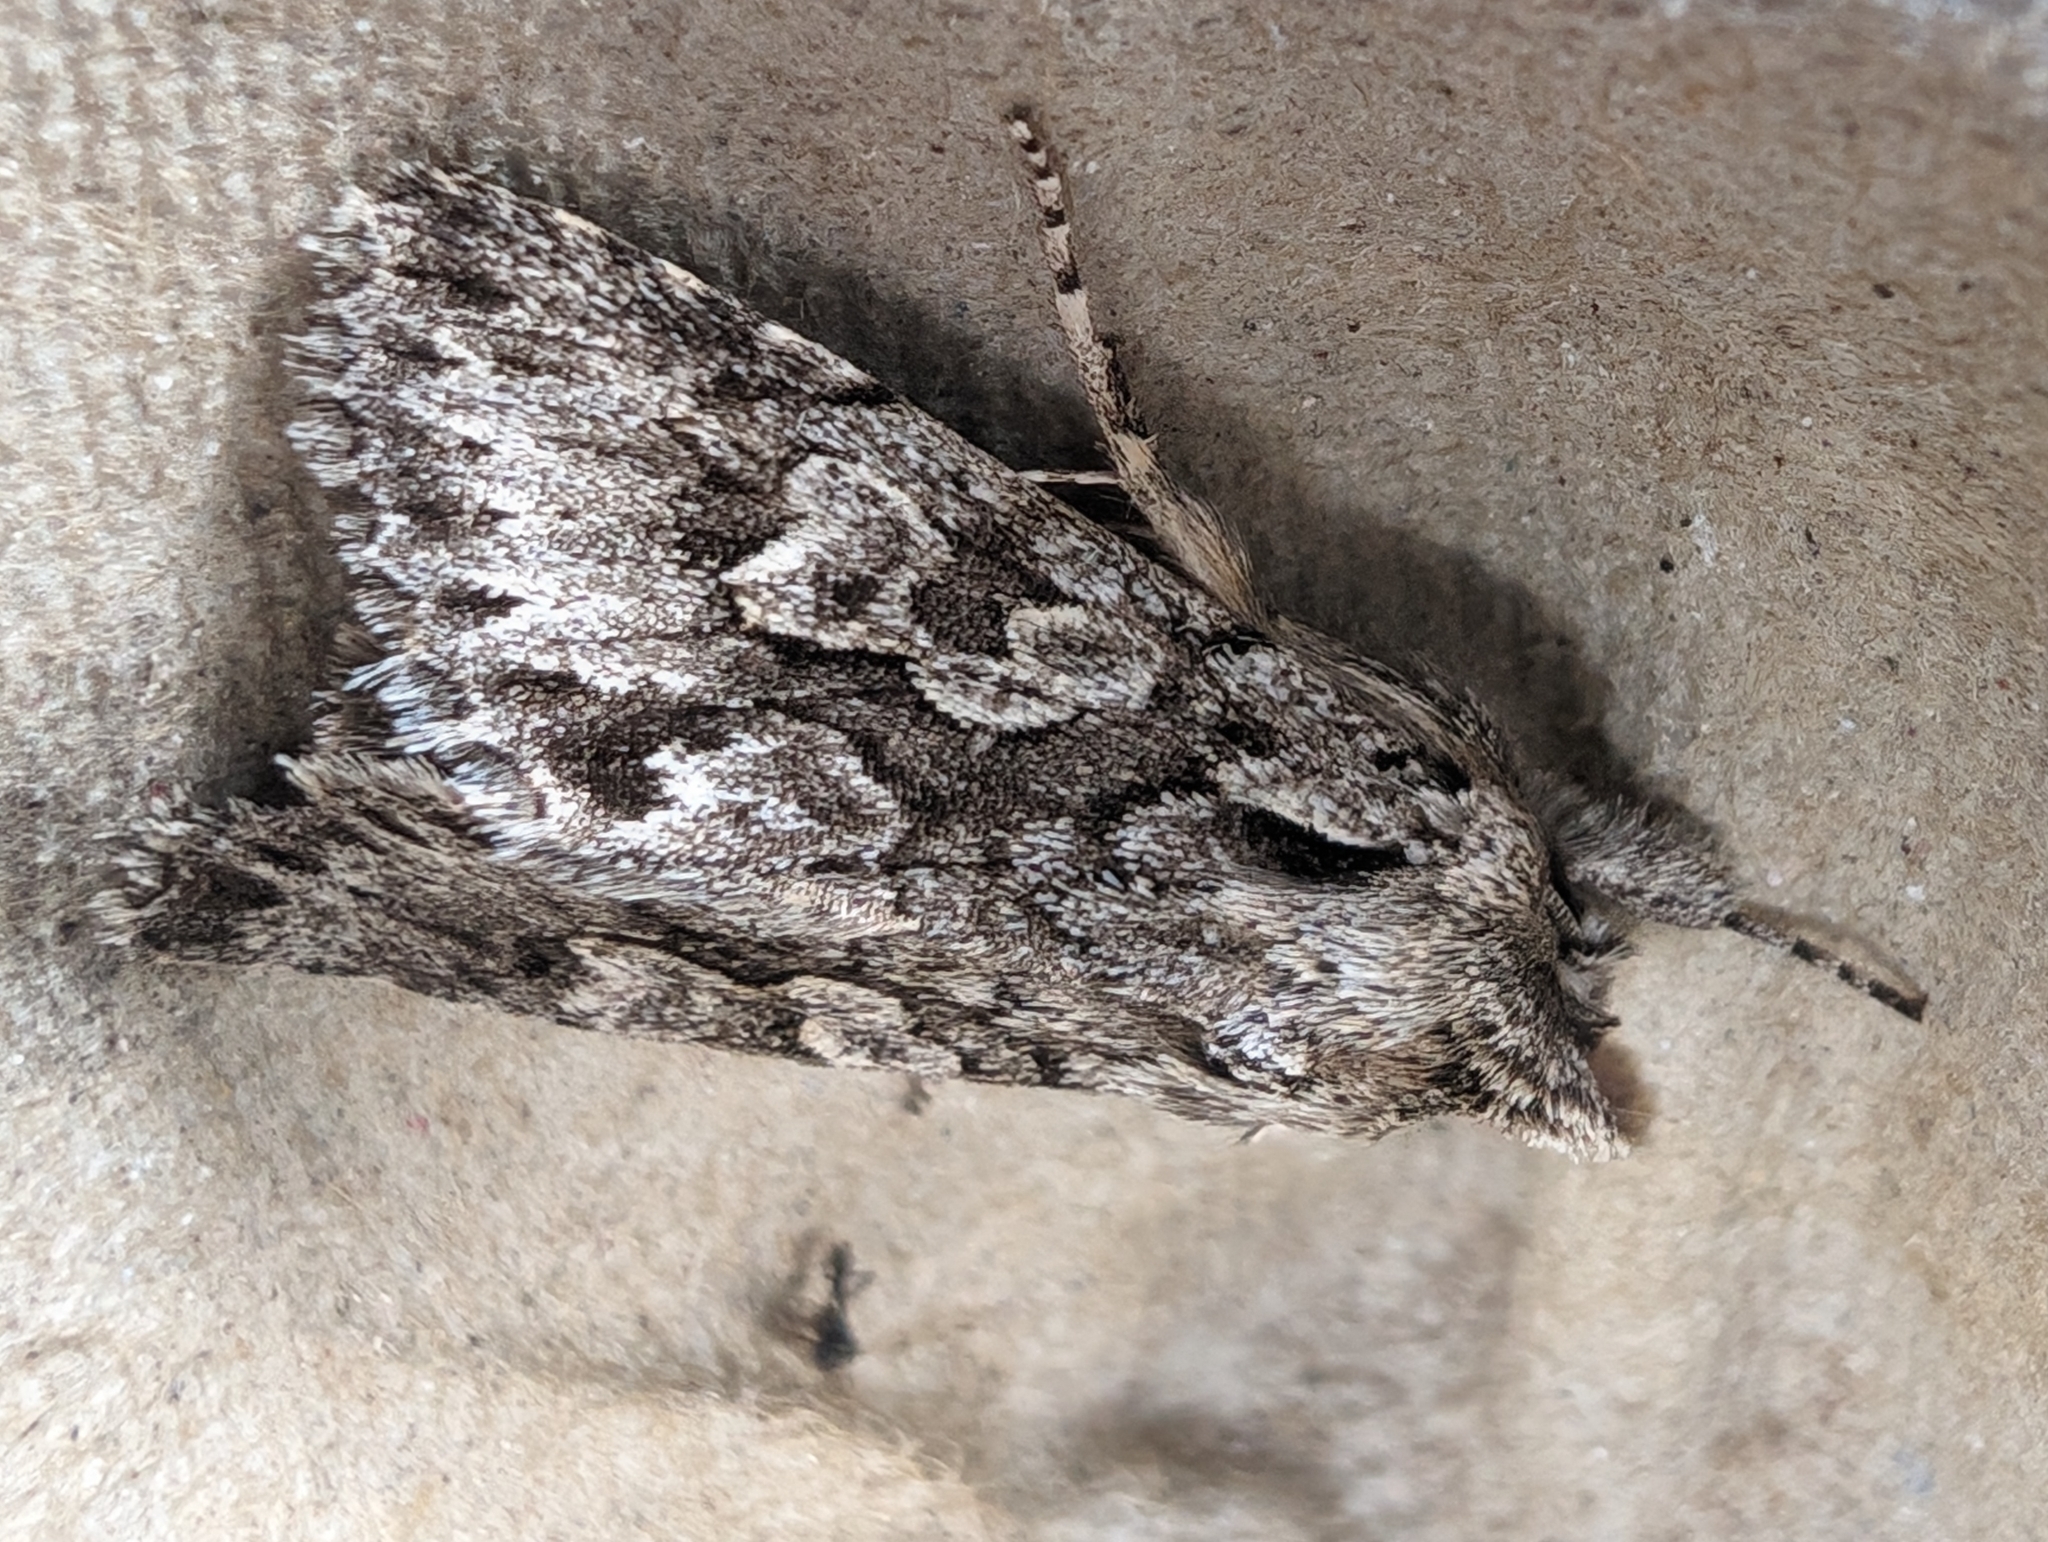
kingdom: Animalia
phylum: Arthropoda
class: Insecta
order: Lepidoptera
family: Noctuidae
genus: Xylocampa
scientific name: Xylocampa areola
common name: Early grey
